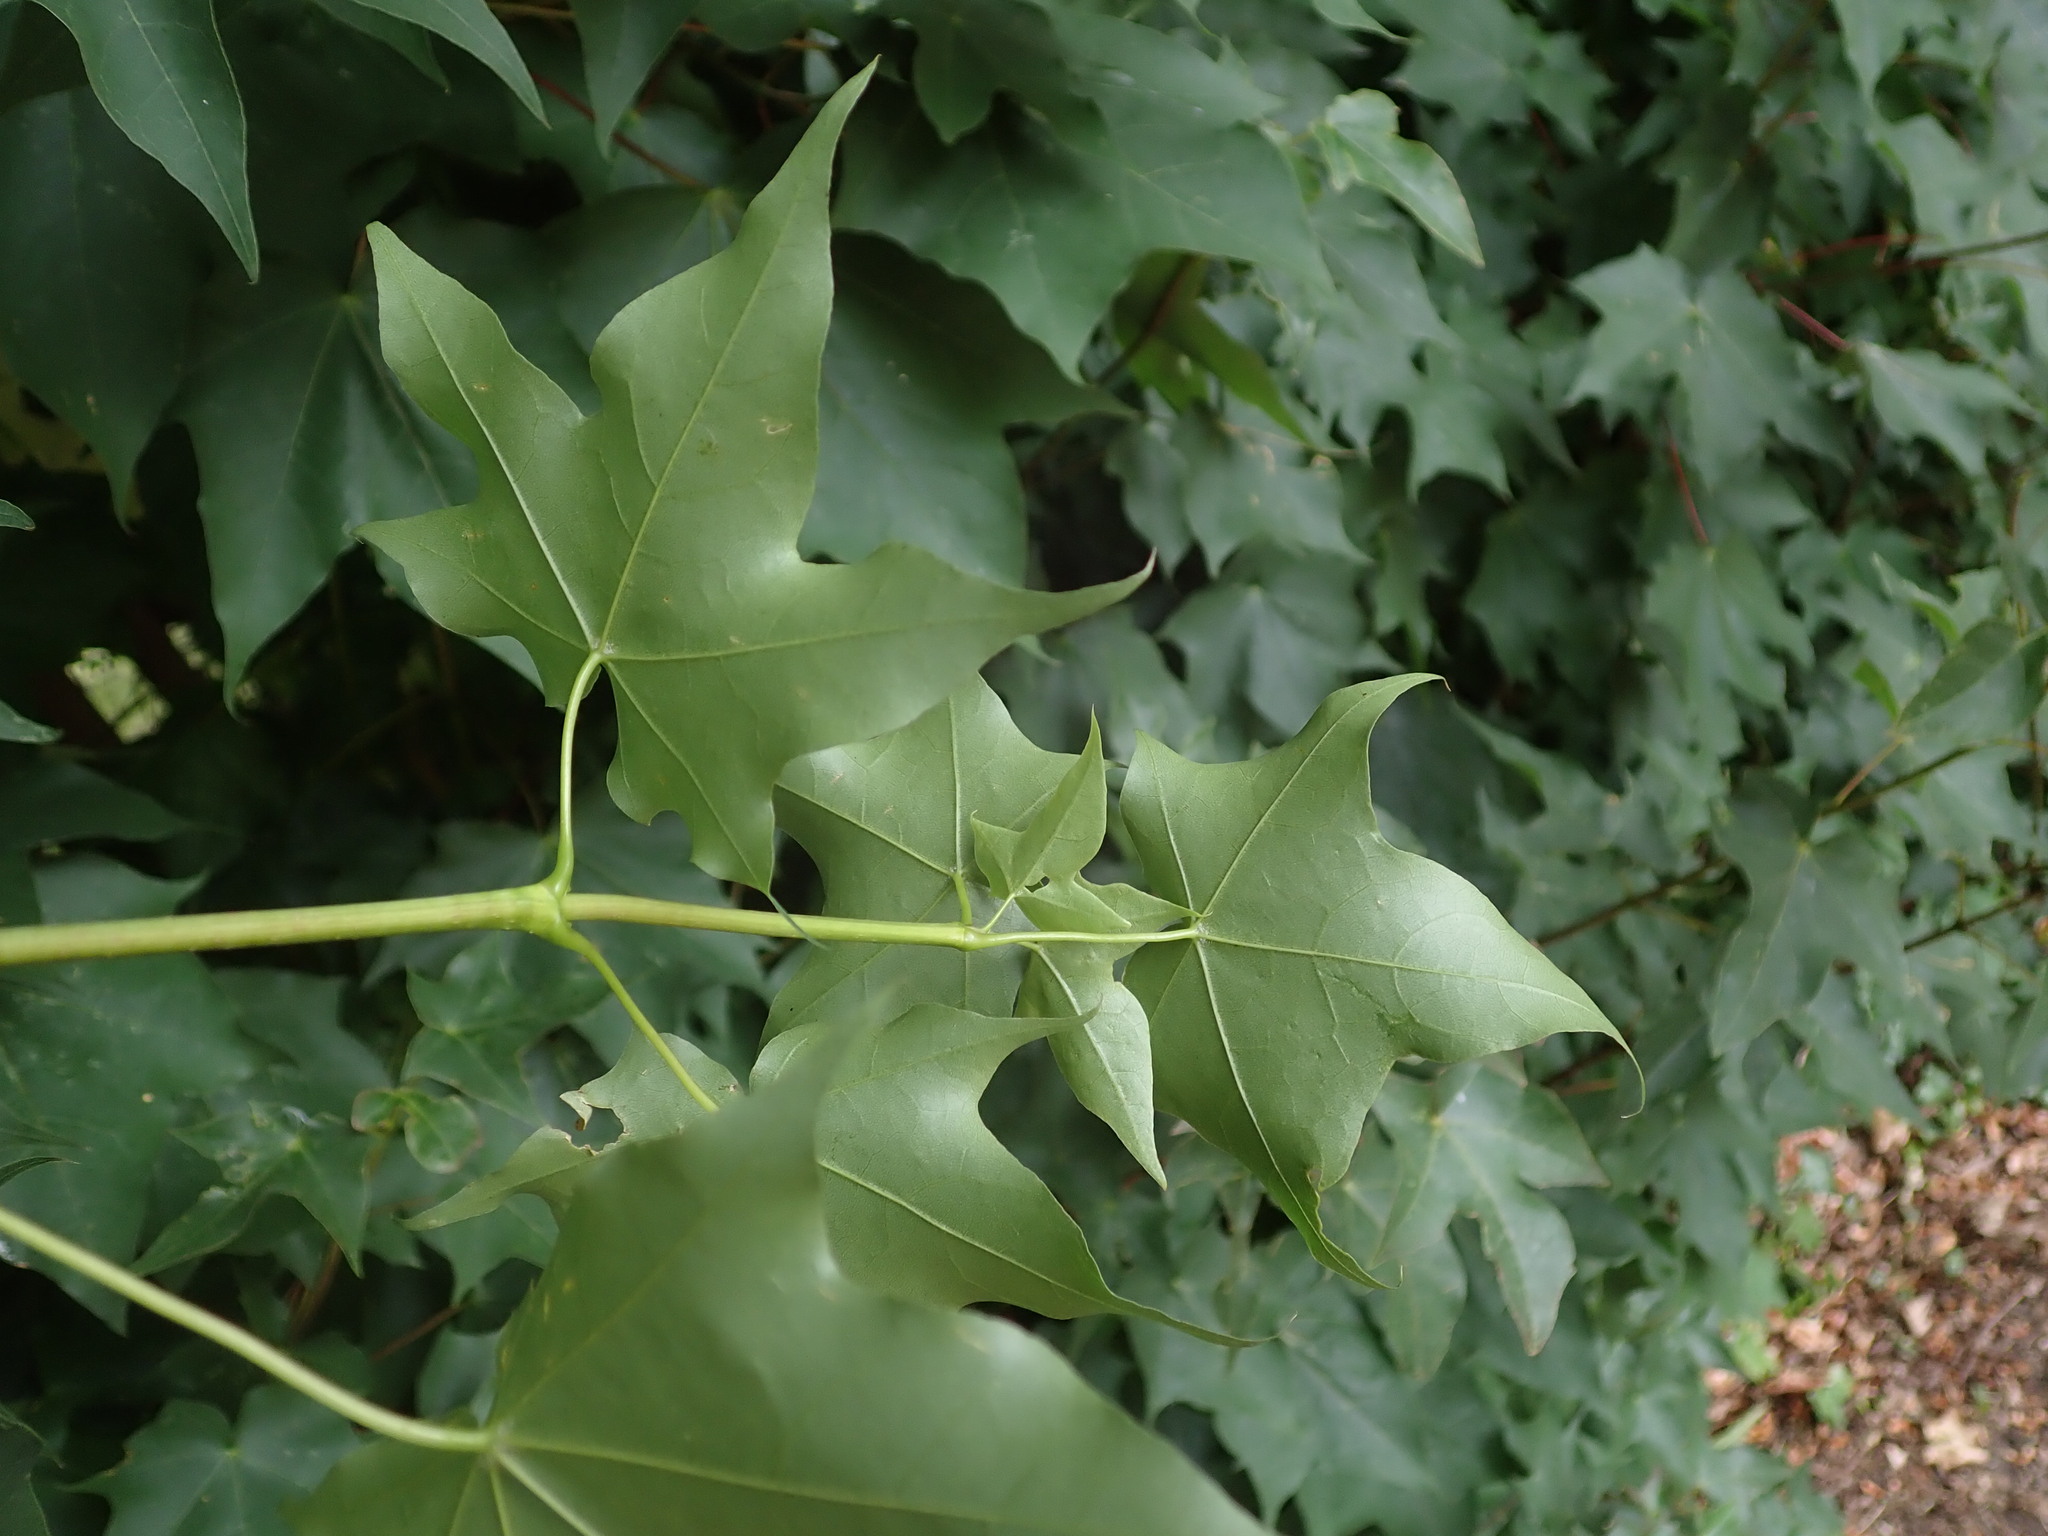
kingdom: Plantae
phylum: Tracheophyta
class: Magnoliopsida
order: Sapindales
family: Sapindaceae
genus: Acer
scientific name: Acer cappadocicum
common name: Cappadocian maple
